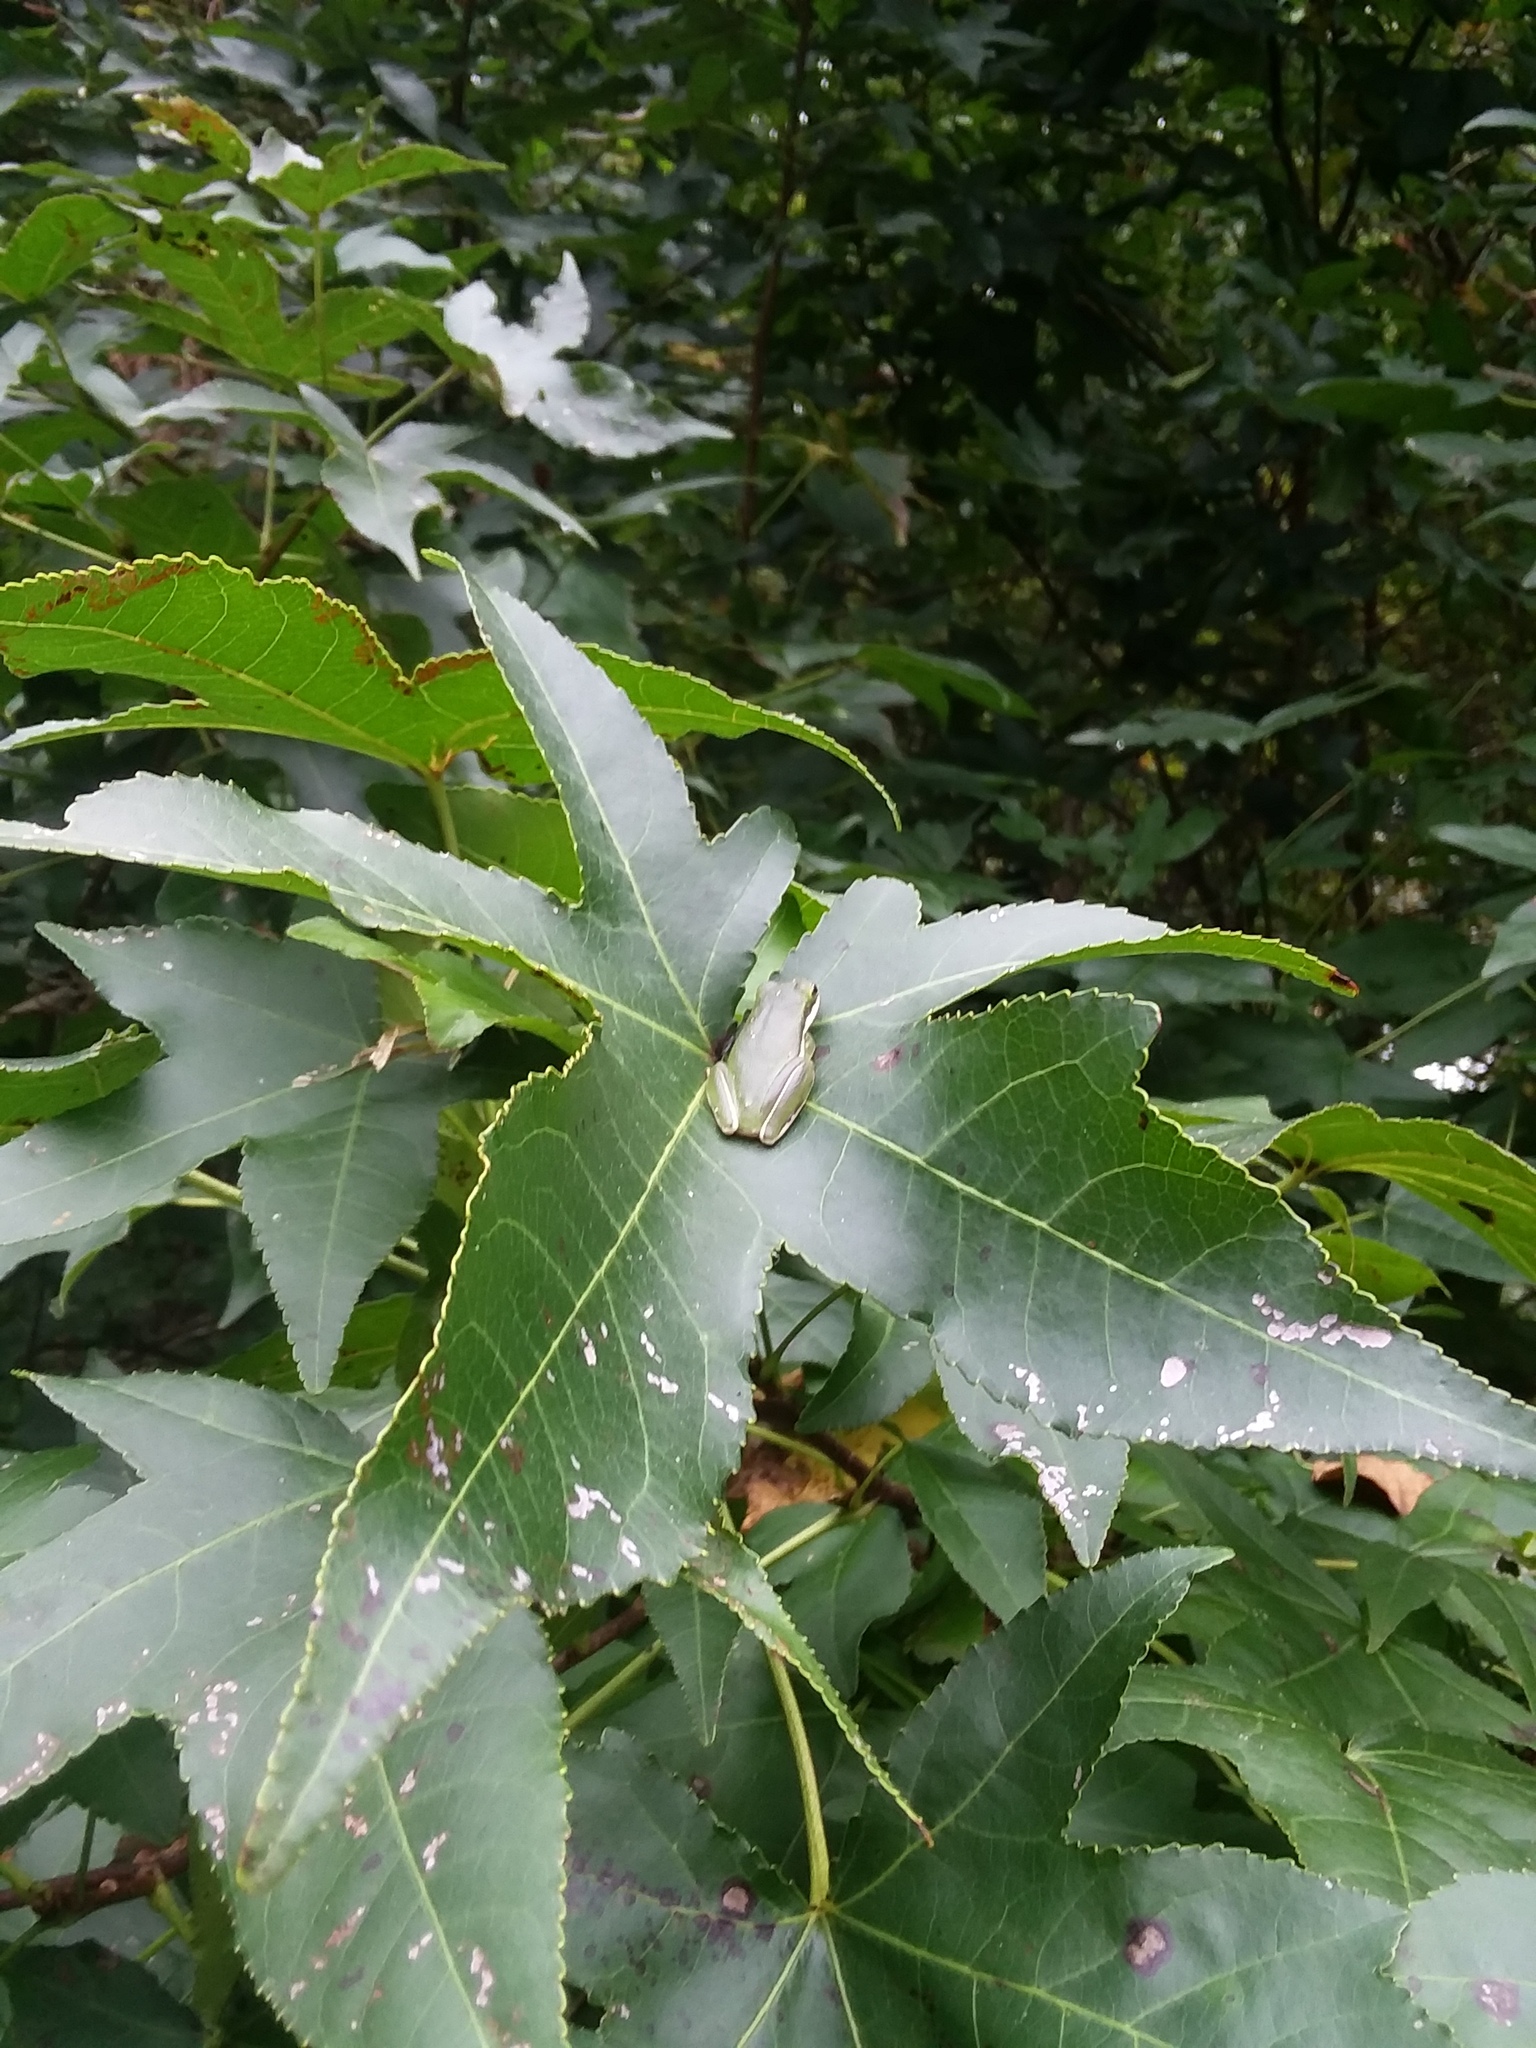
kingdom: Animalia
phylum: Chordata
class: Amphibia
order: Anura
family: Hylidae
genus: Dryophytes
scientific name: Dryophytes cinereus
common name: Green treefrog
